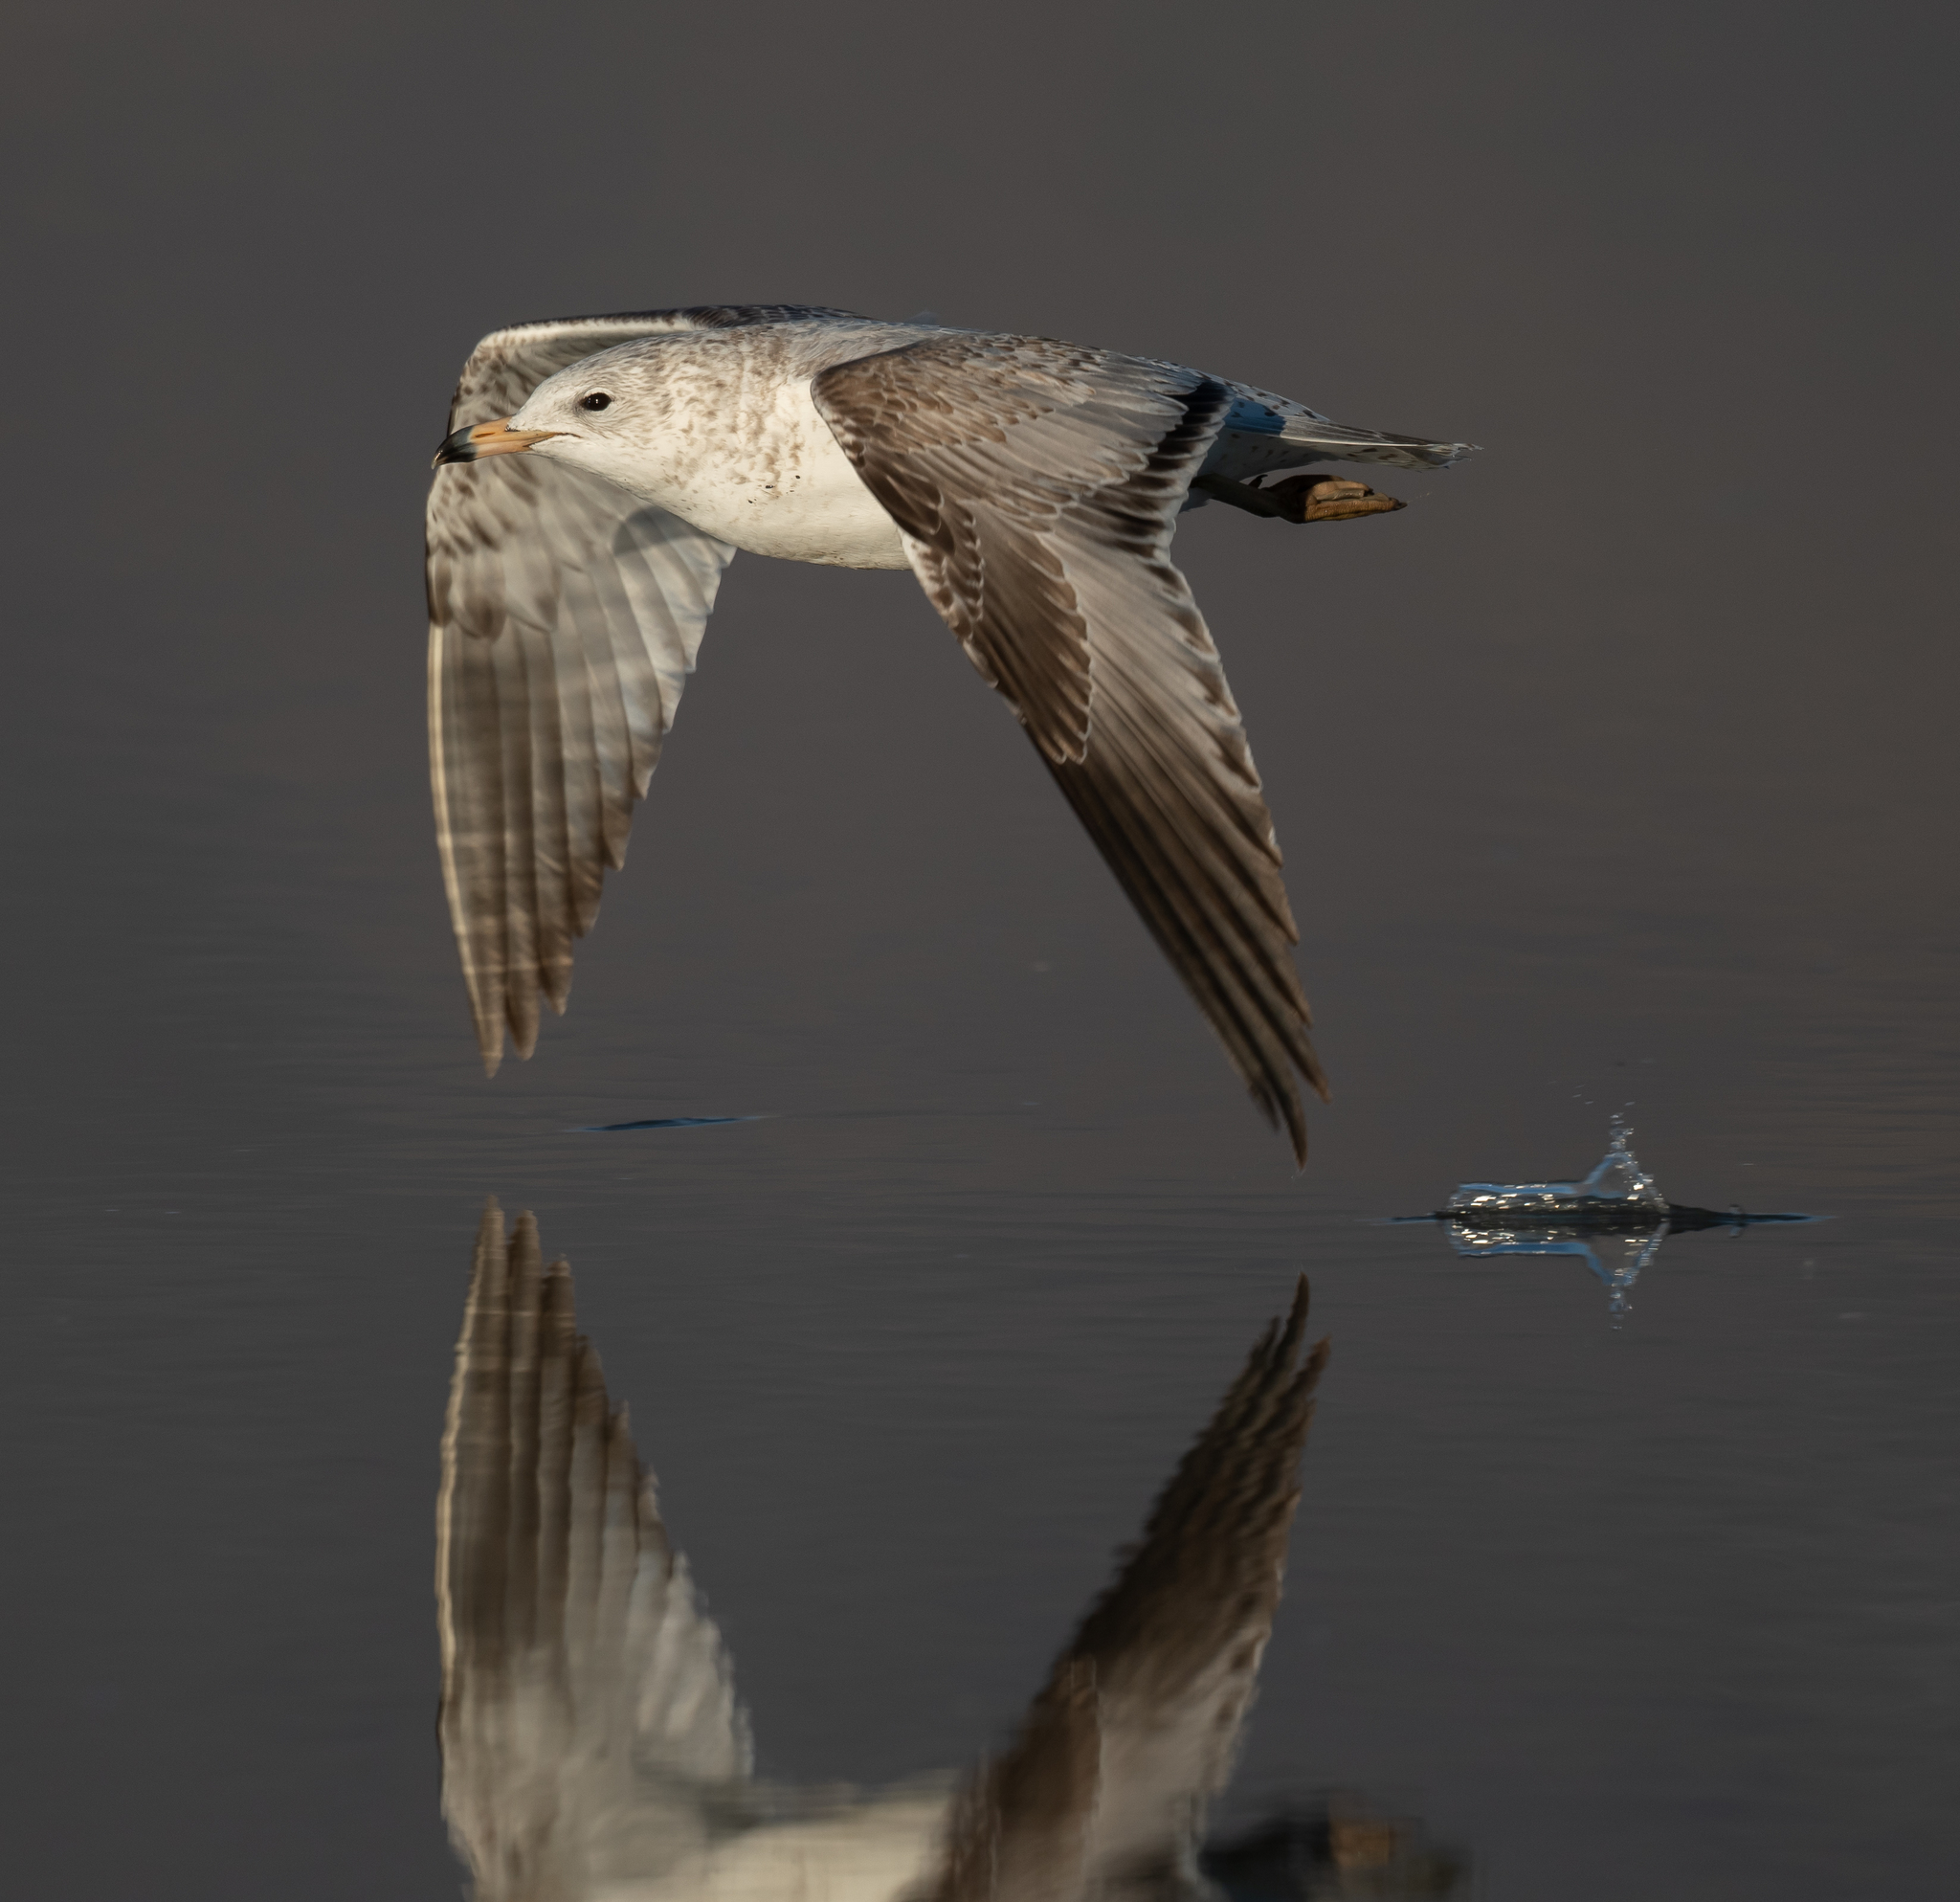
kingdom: Animalia
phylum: Chordata
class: Aves
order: Charadriiformes
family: Laridae
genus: Larus
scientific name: Larus delawarensis
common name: Ring-billed gull
